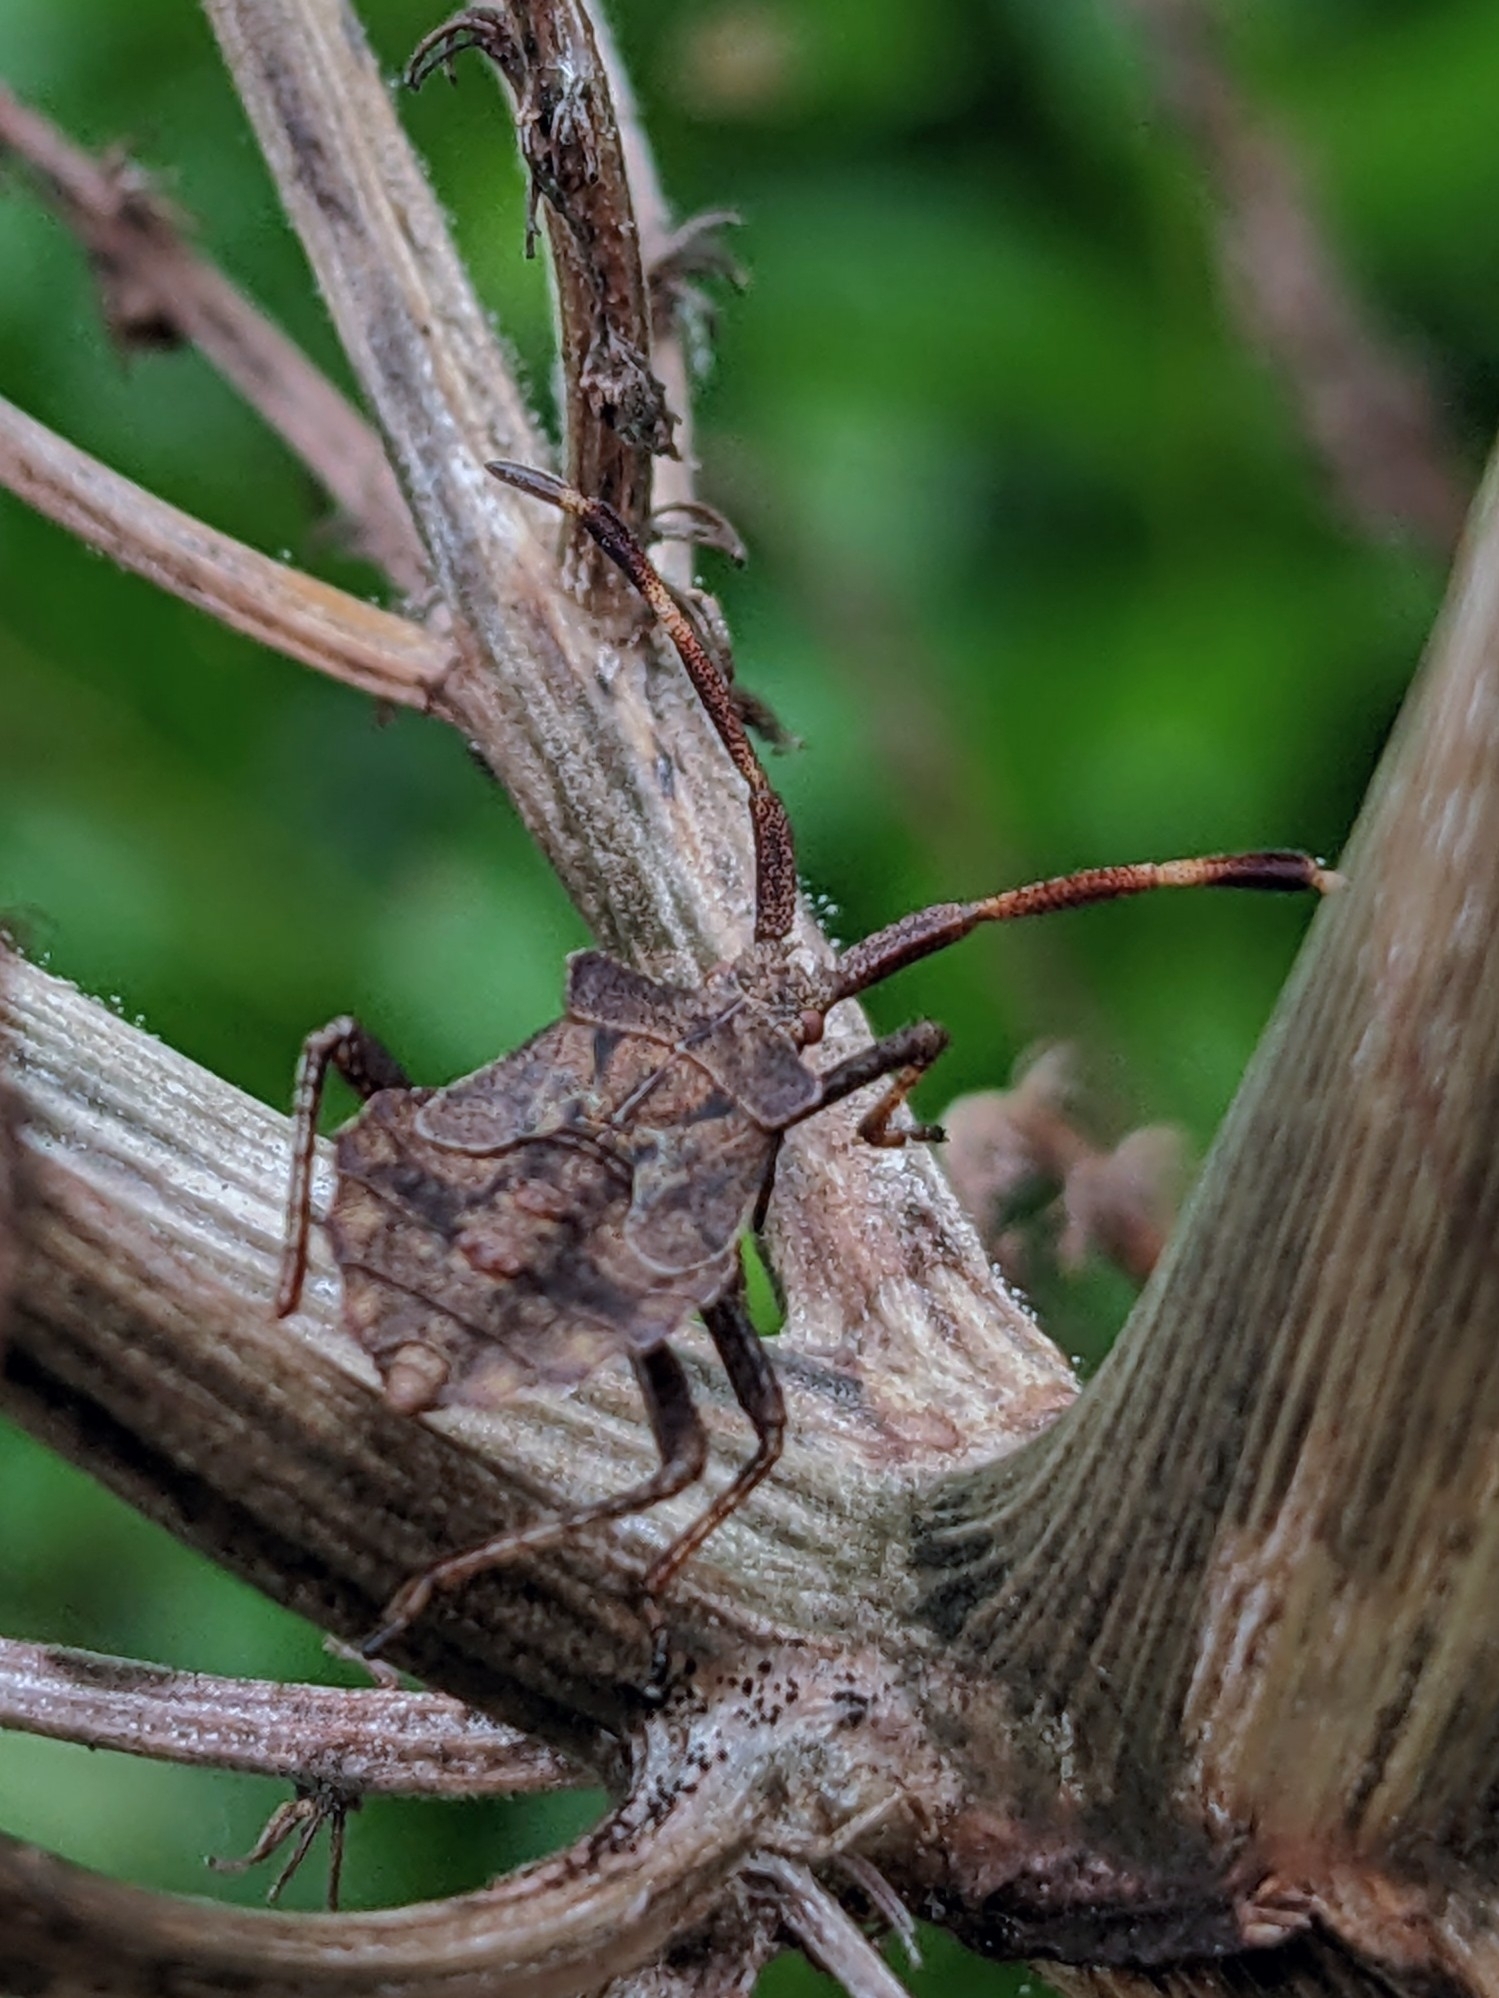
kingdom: Animalia
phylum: Arthropoda
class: Insecta
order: Hemiptera
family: Coreidae
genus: Coreus
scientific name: Coreus marginatus
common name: Dock bug
